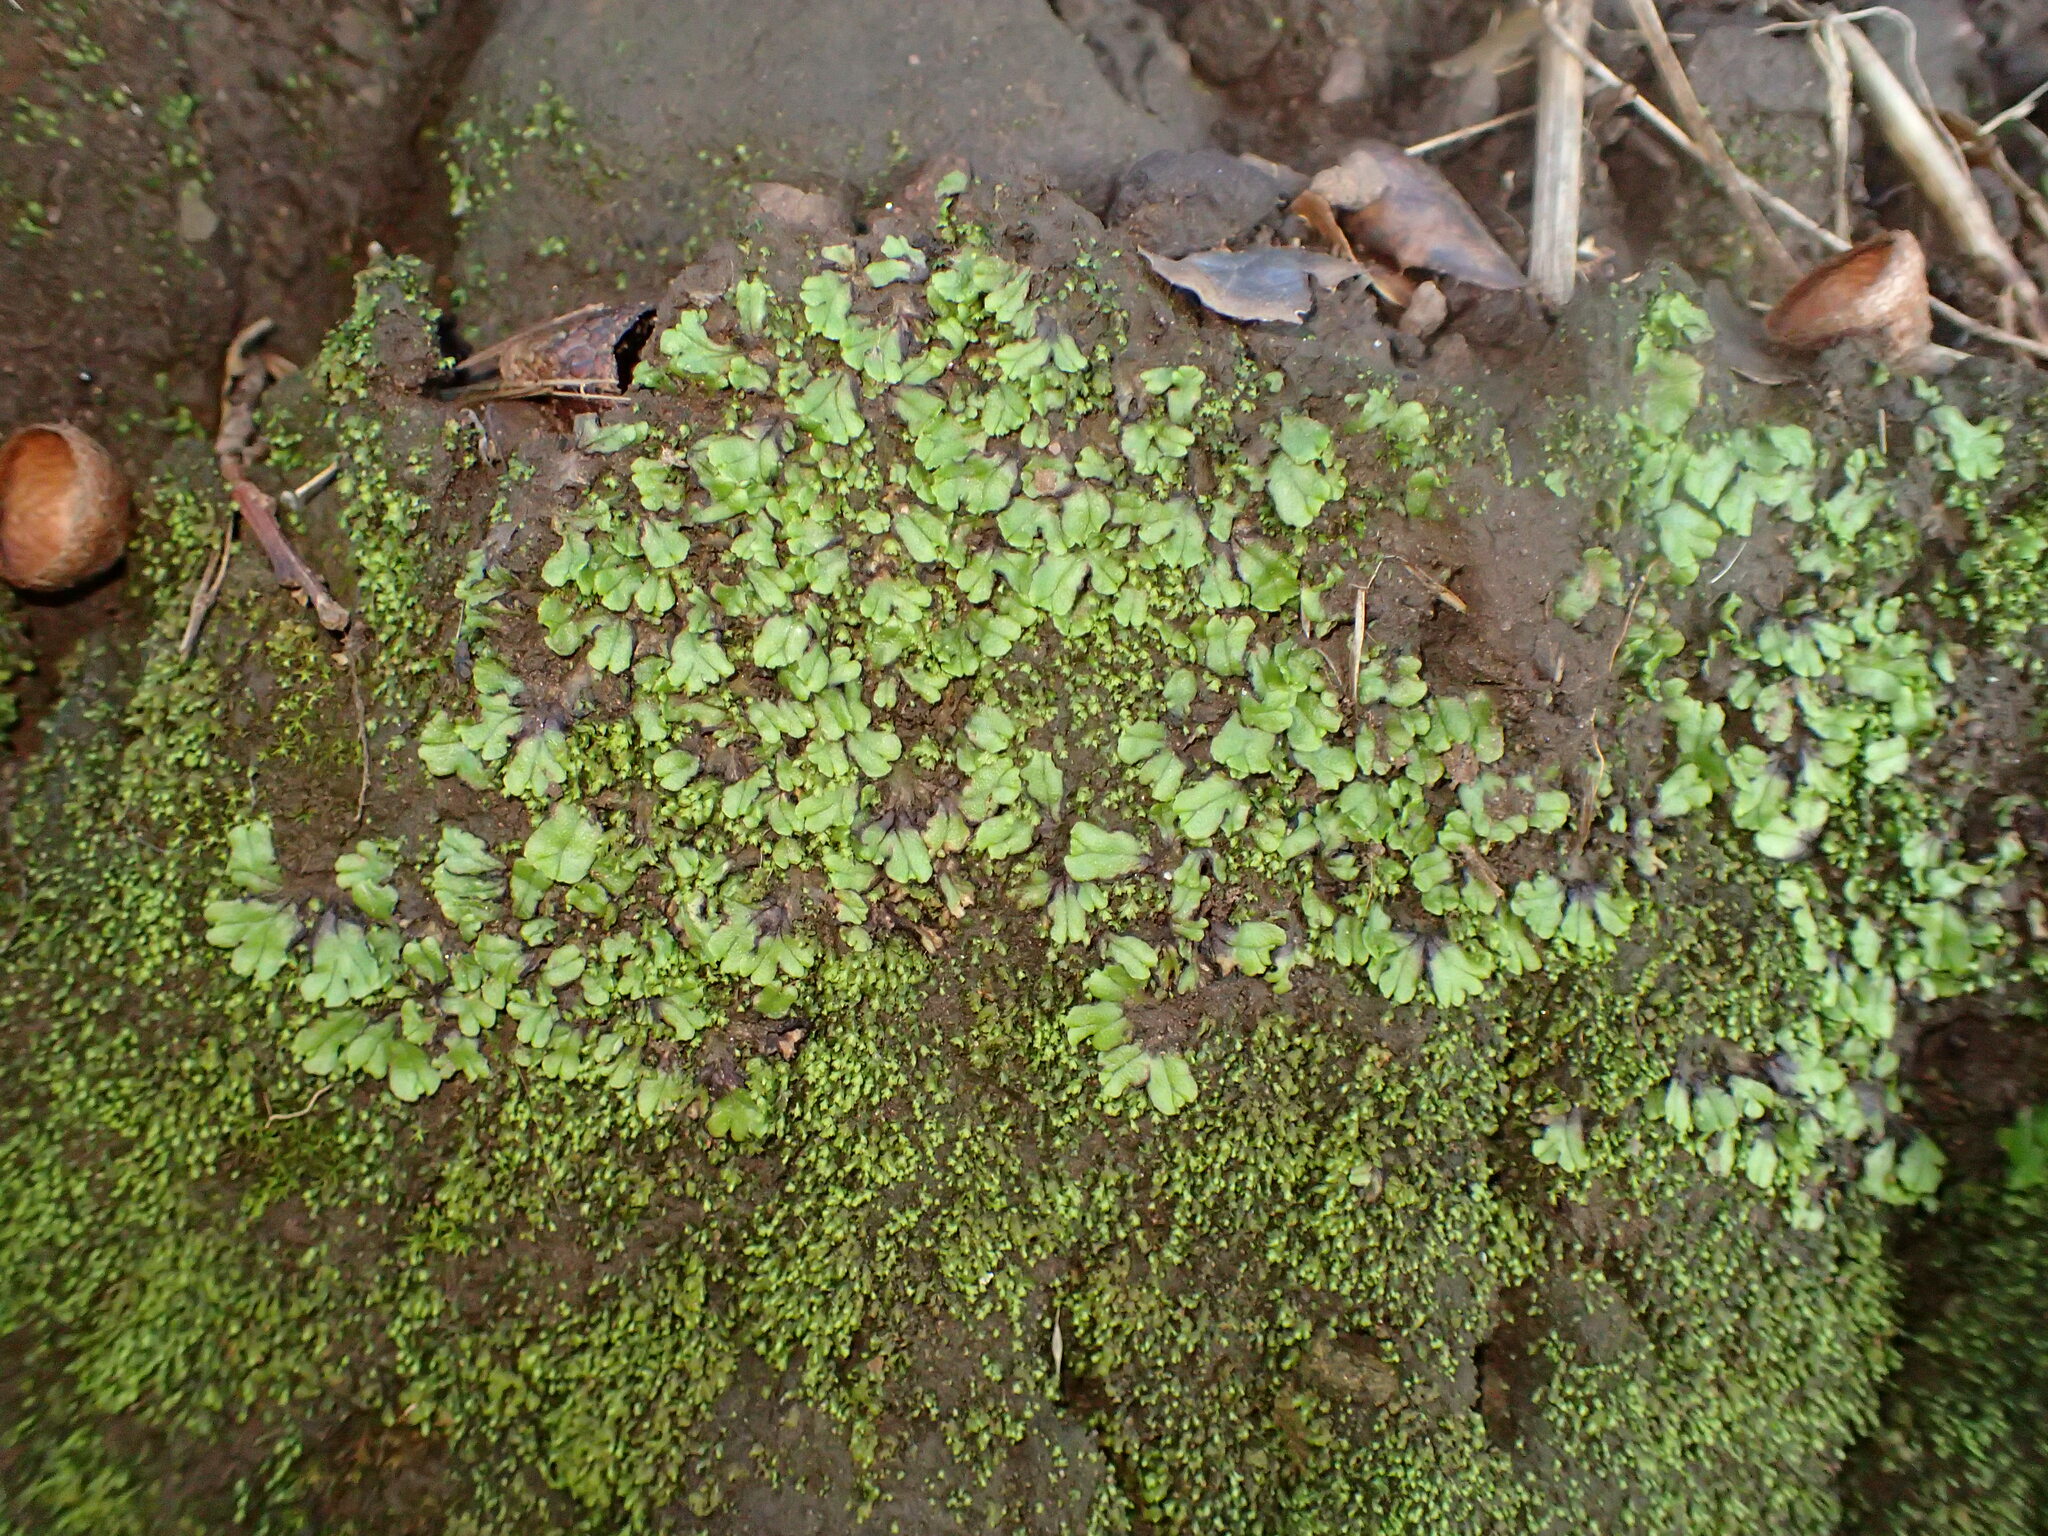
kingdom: Plantae
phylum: Marchantiophyta
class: Marchantiopsida
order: Marchantiales
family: Aytoniaceae
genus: Cryptomitrium
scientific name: Cryptomitrium tenerum
